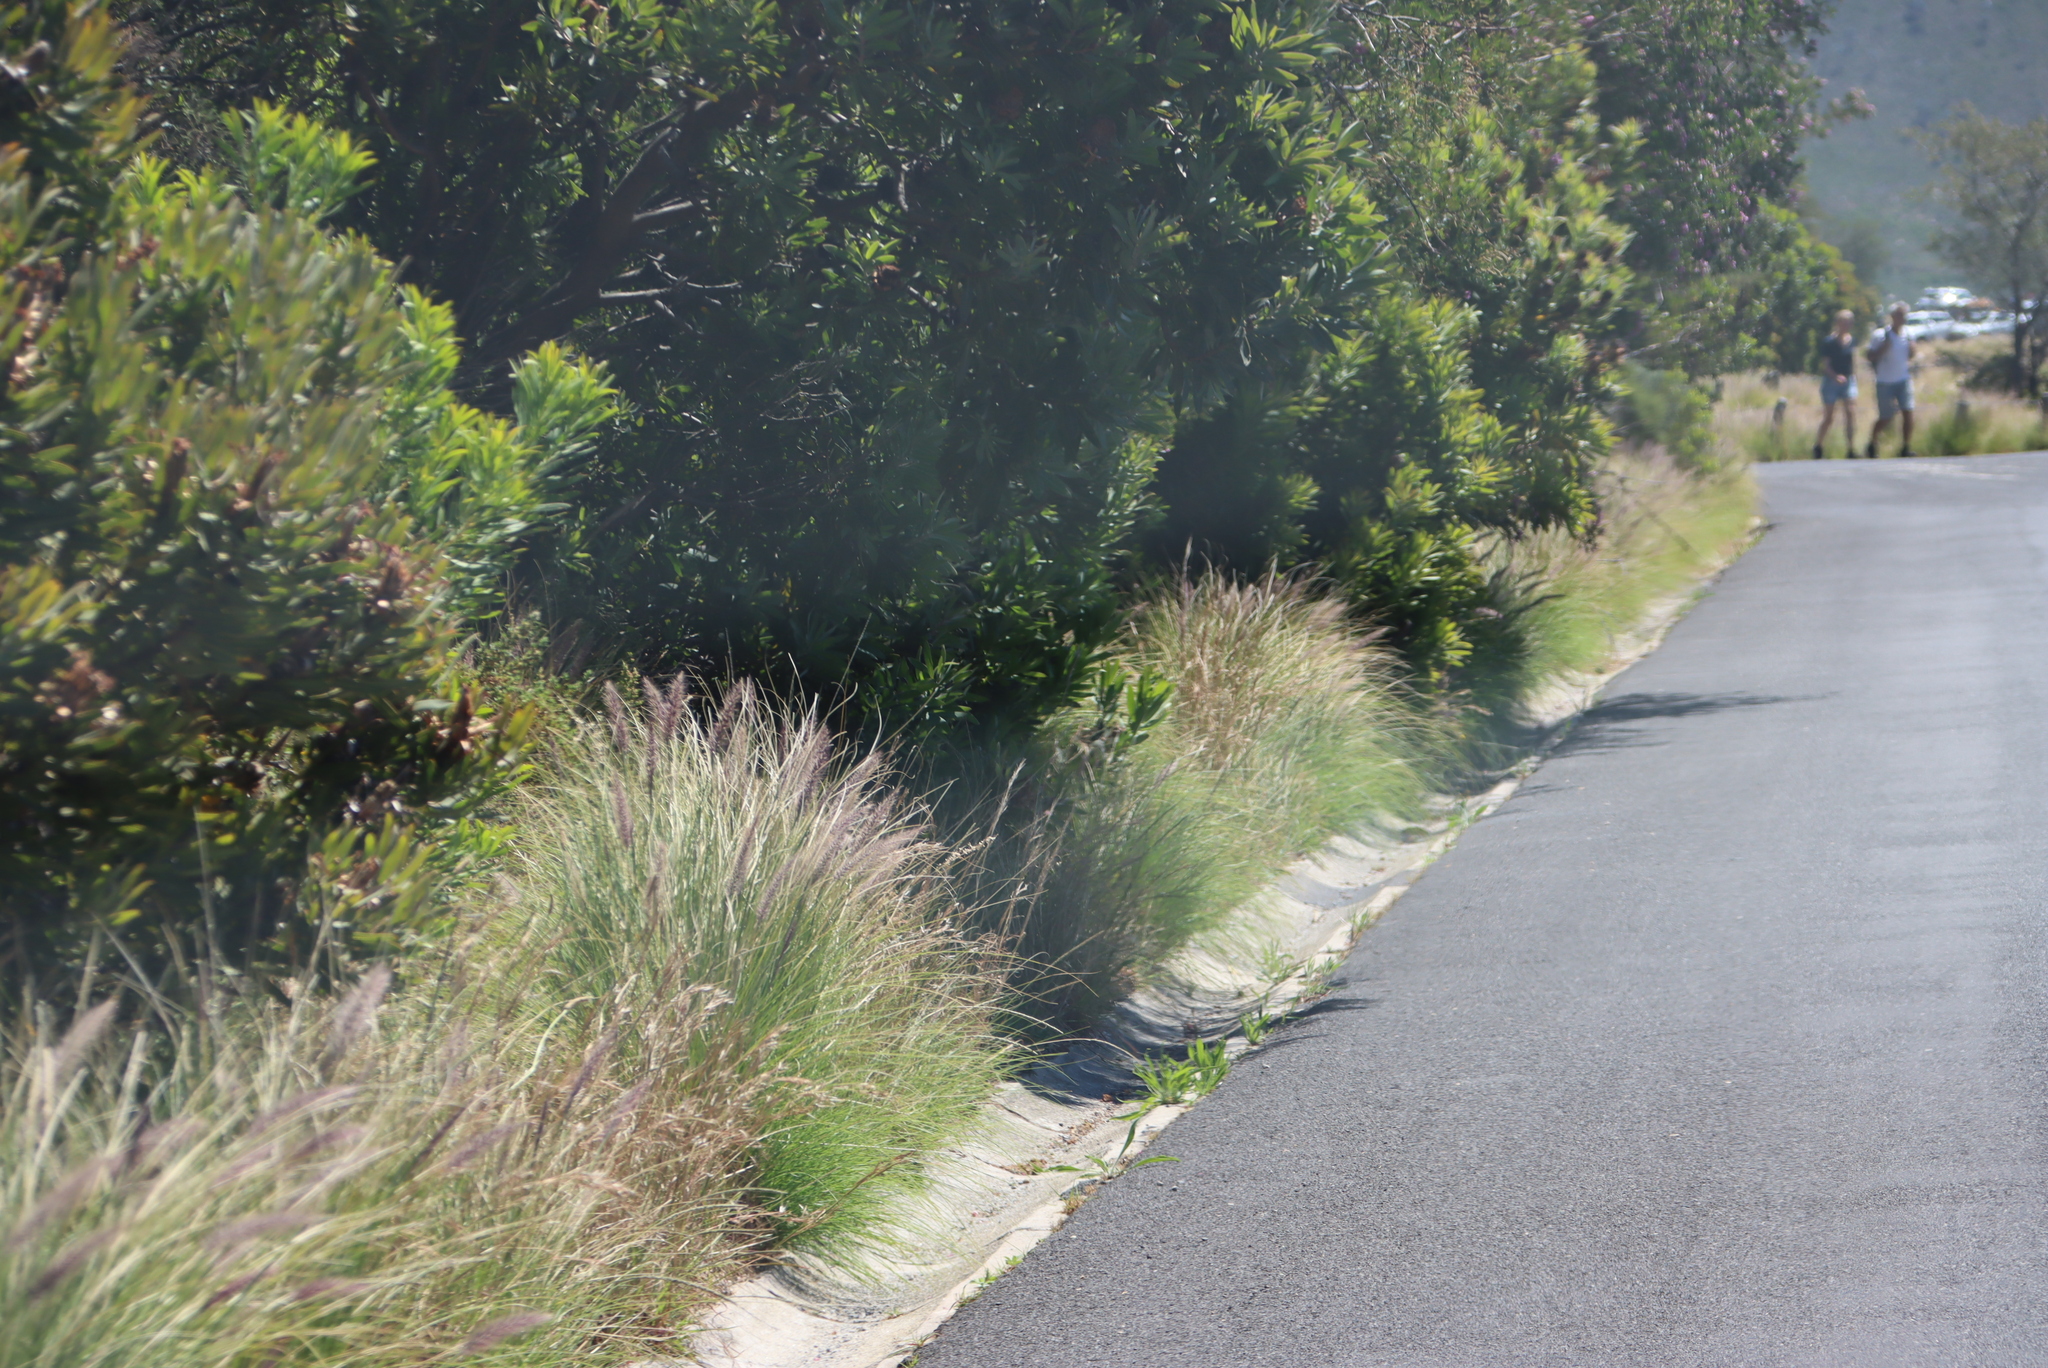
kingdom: Plantae
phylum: Tracheophyta
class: Liliopsida
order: Poales
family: Poaceae
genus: Cenchrus
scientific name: Cenchrus setaceus
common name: Crimson fountaingrass
